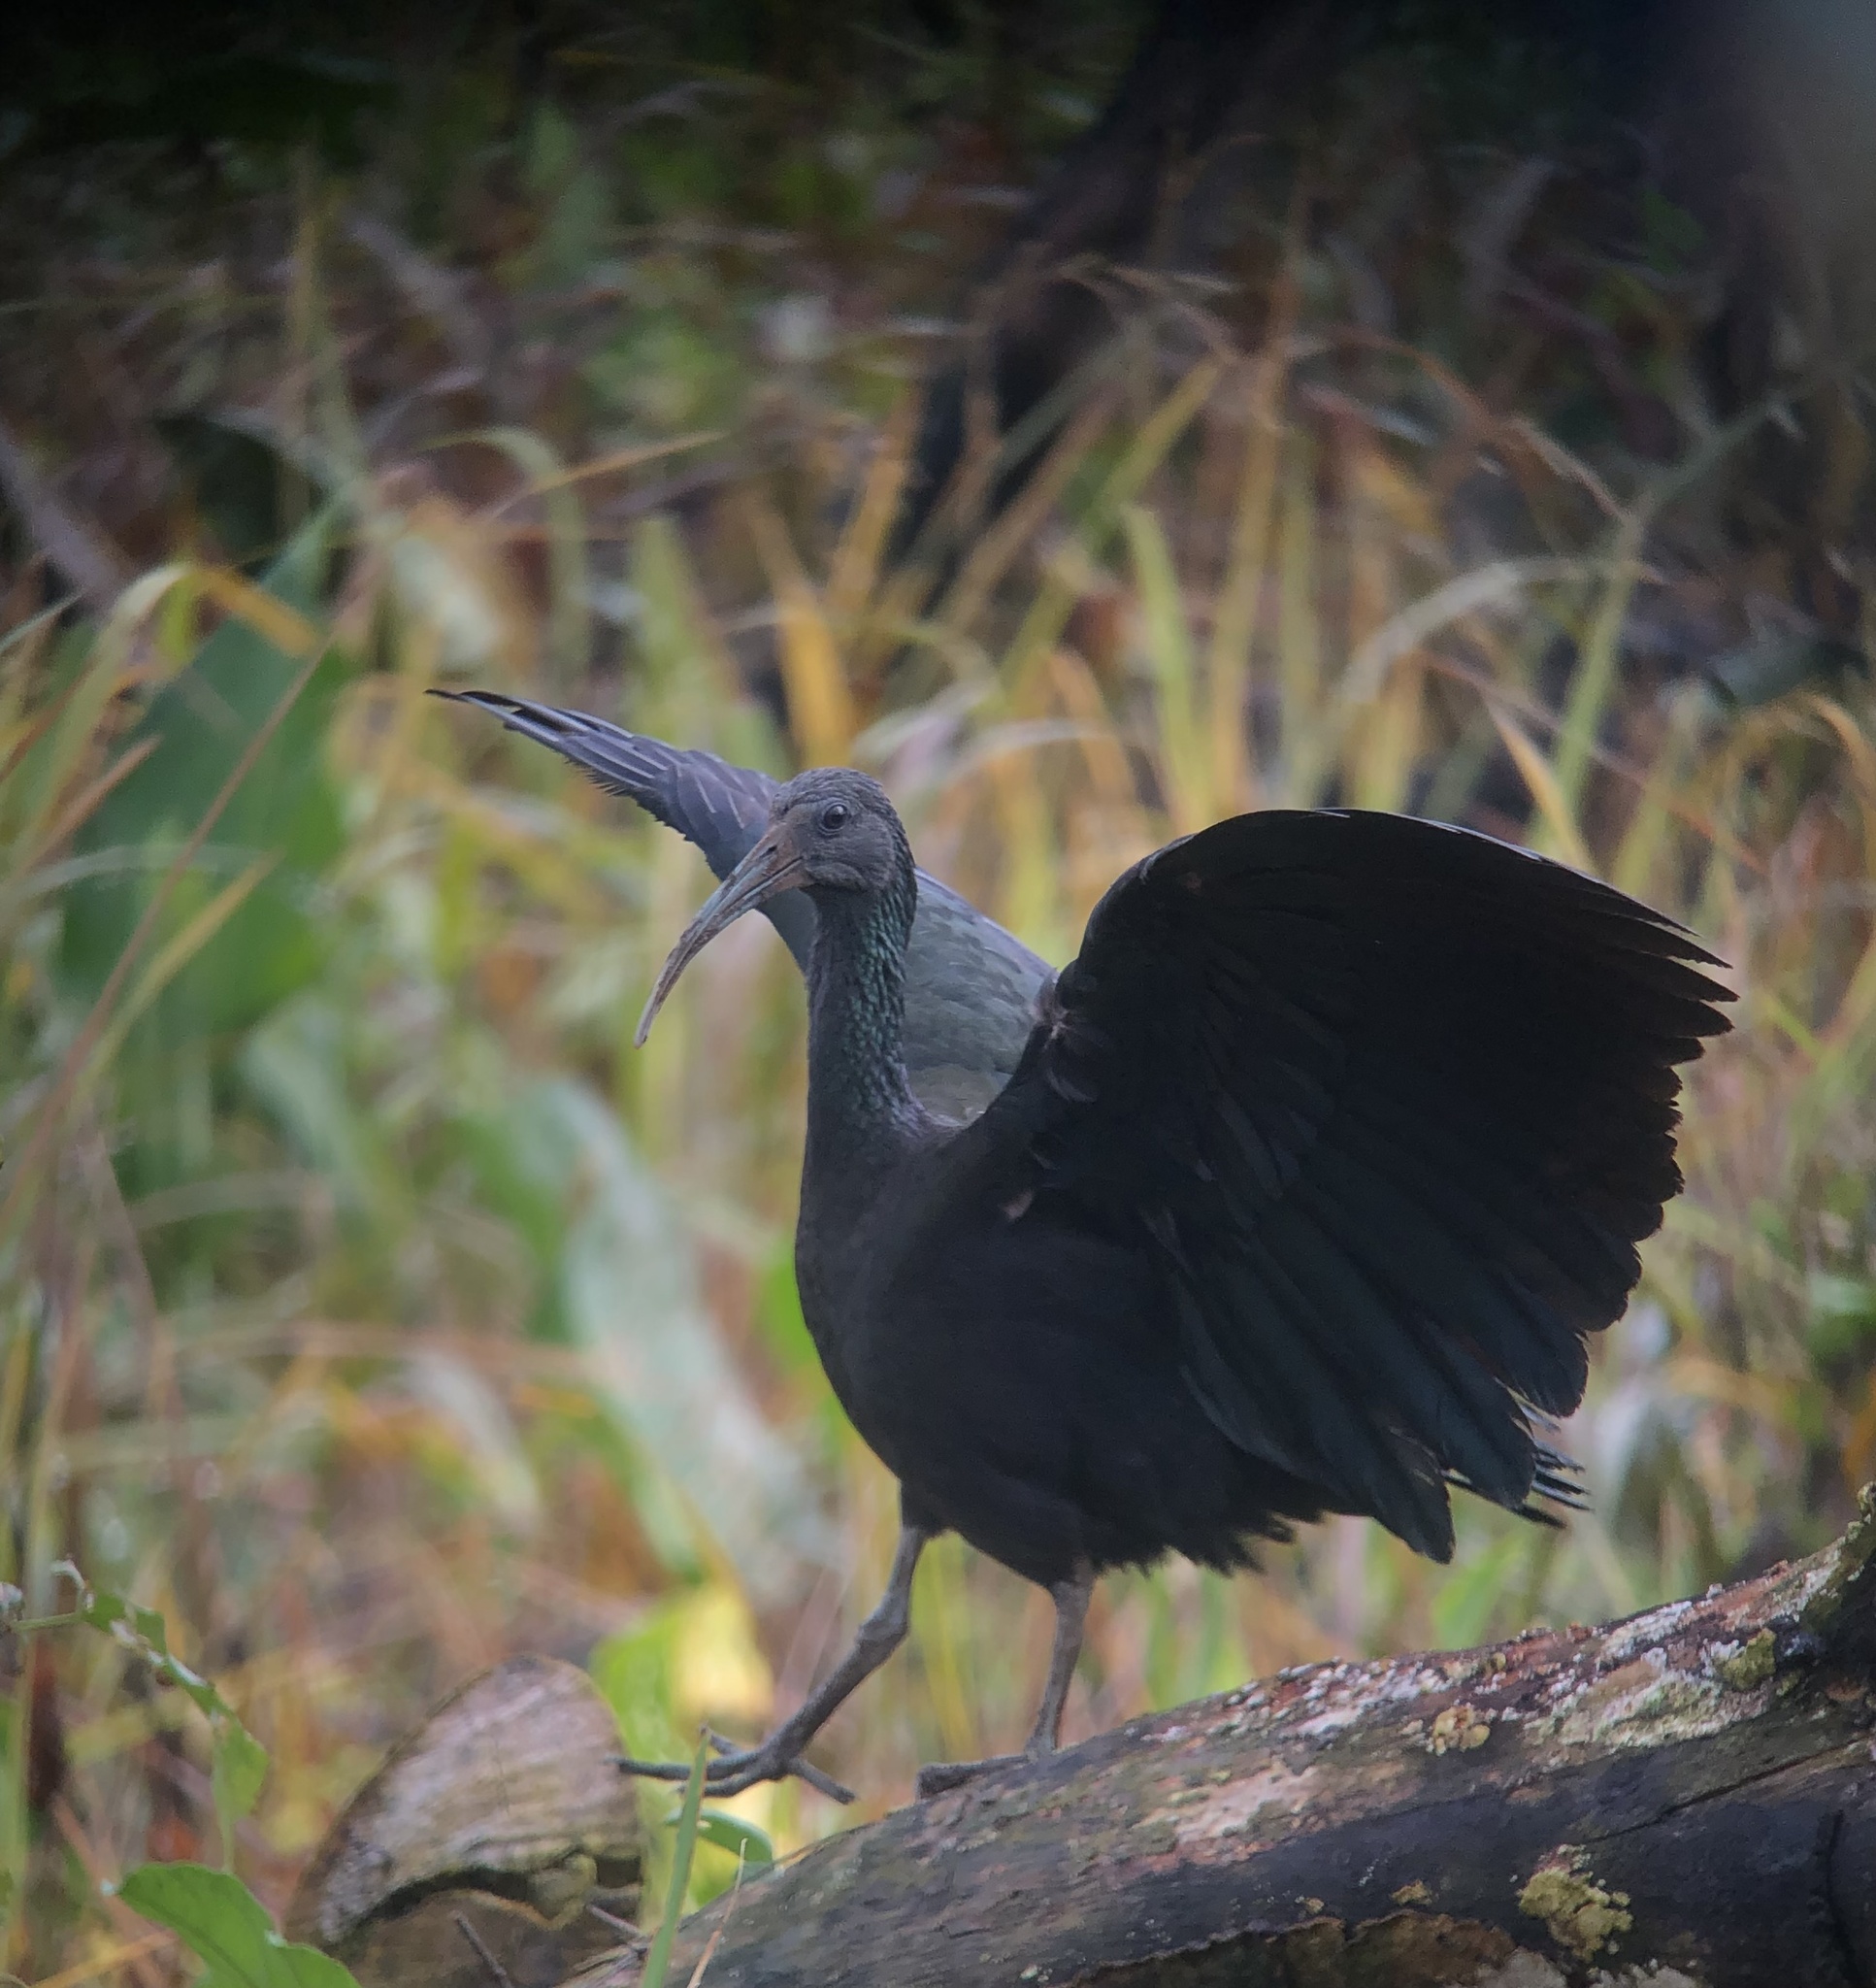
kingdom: Animalia
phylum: Chordata
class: Aves
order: Pelecaniformes
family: Threskiornithidae
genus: Mesembrinibis
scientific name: Mesembrinibis cayennensis
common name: Green ibis
